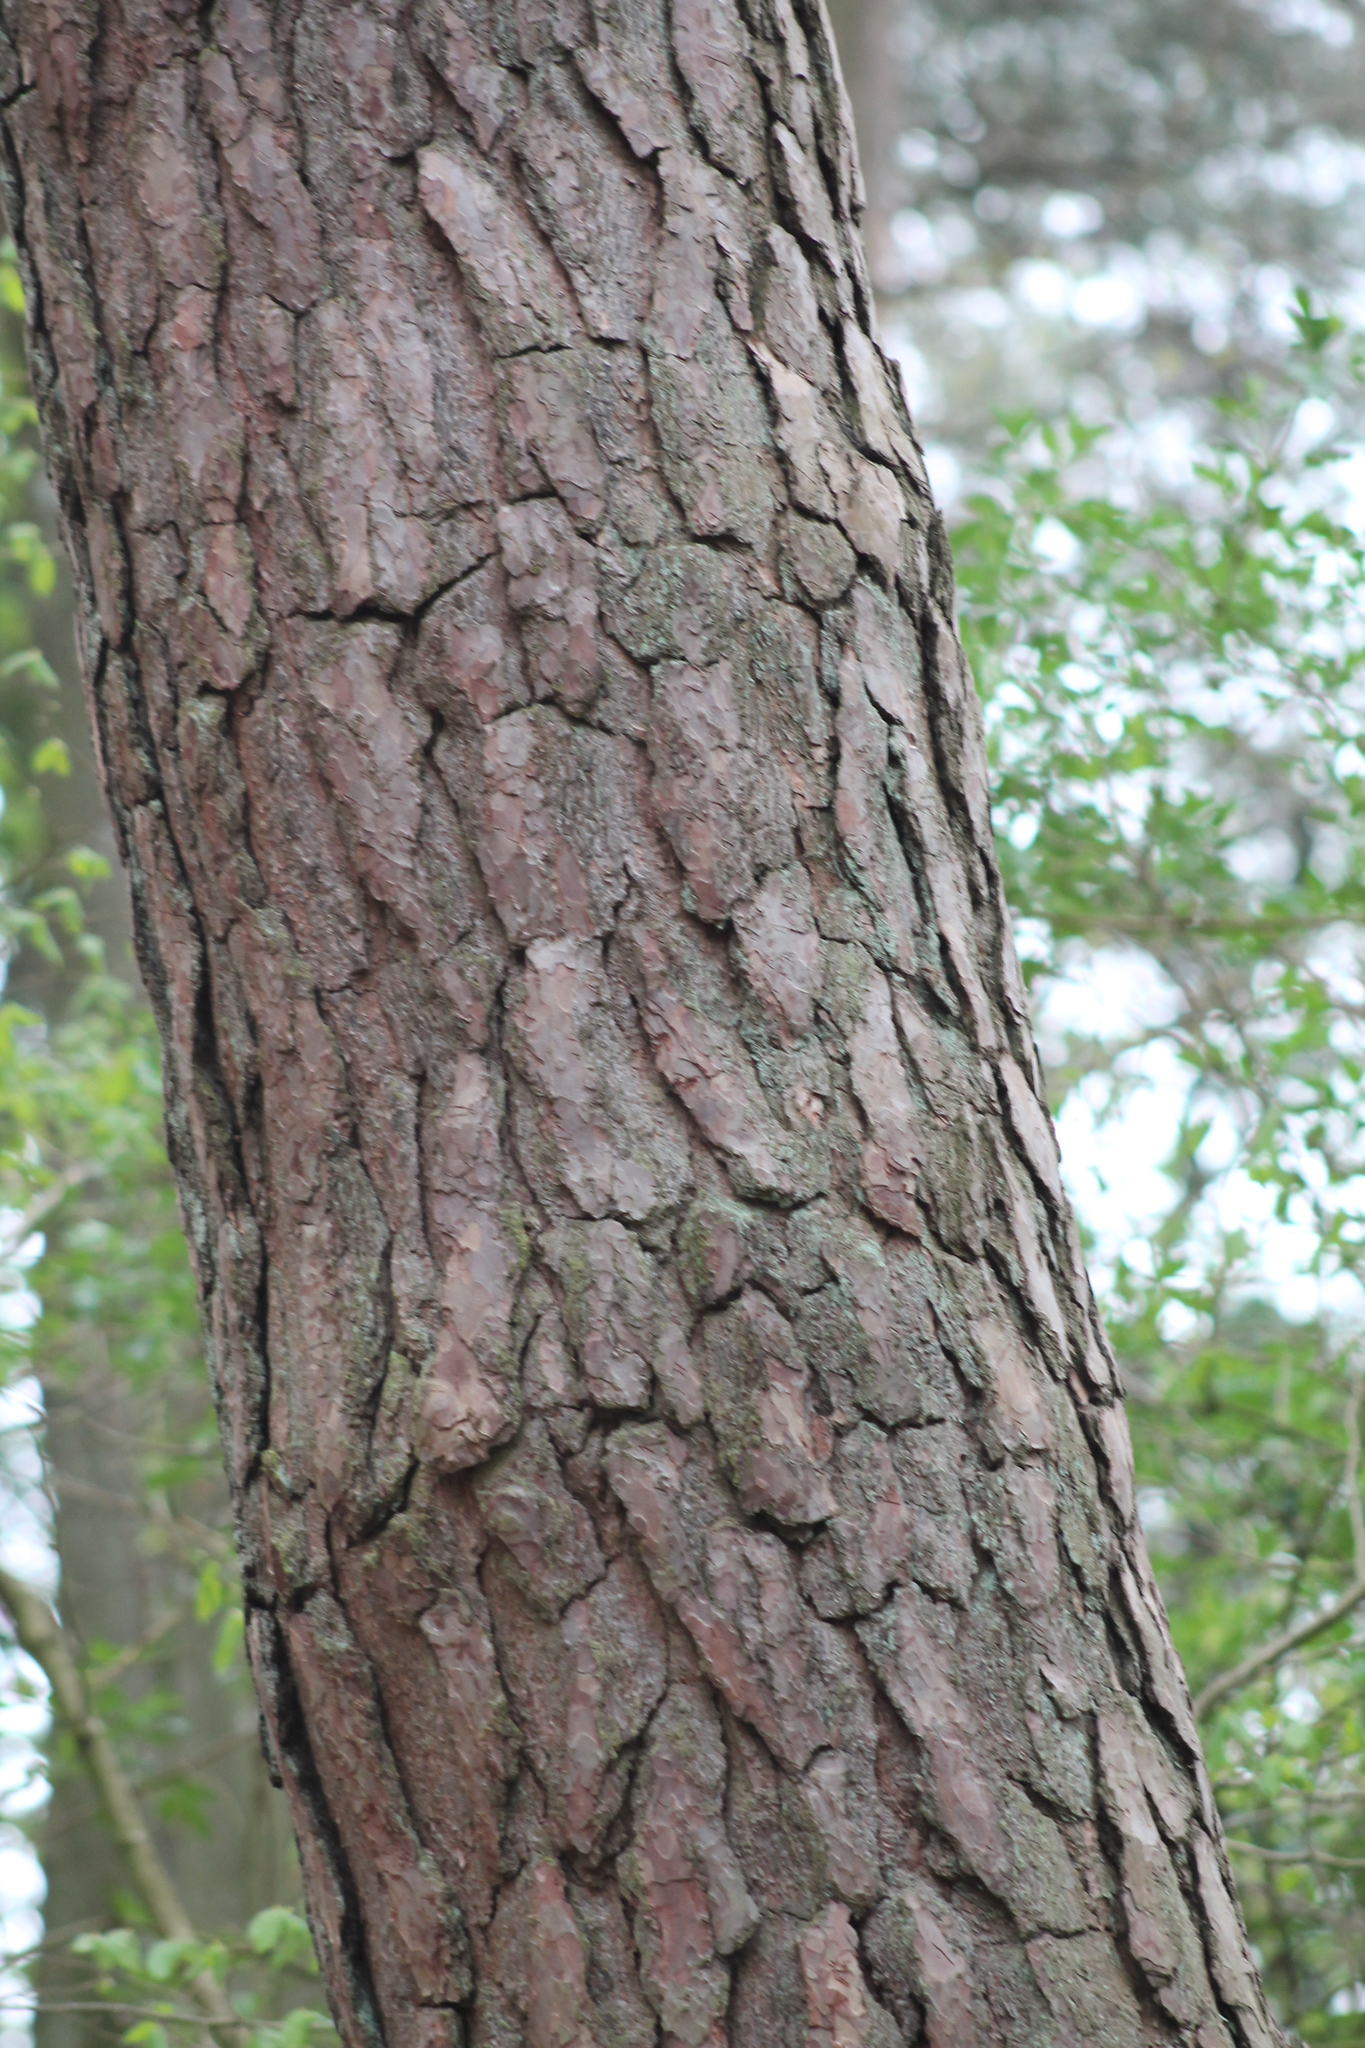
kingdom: Plantae
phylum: Tracheophyta
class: Pinopsida
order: Pinales
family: Pinaceae
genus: Pinus
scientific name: Pinus sylvestris
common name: Scots pine
